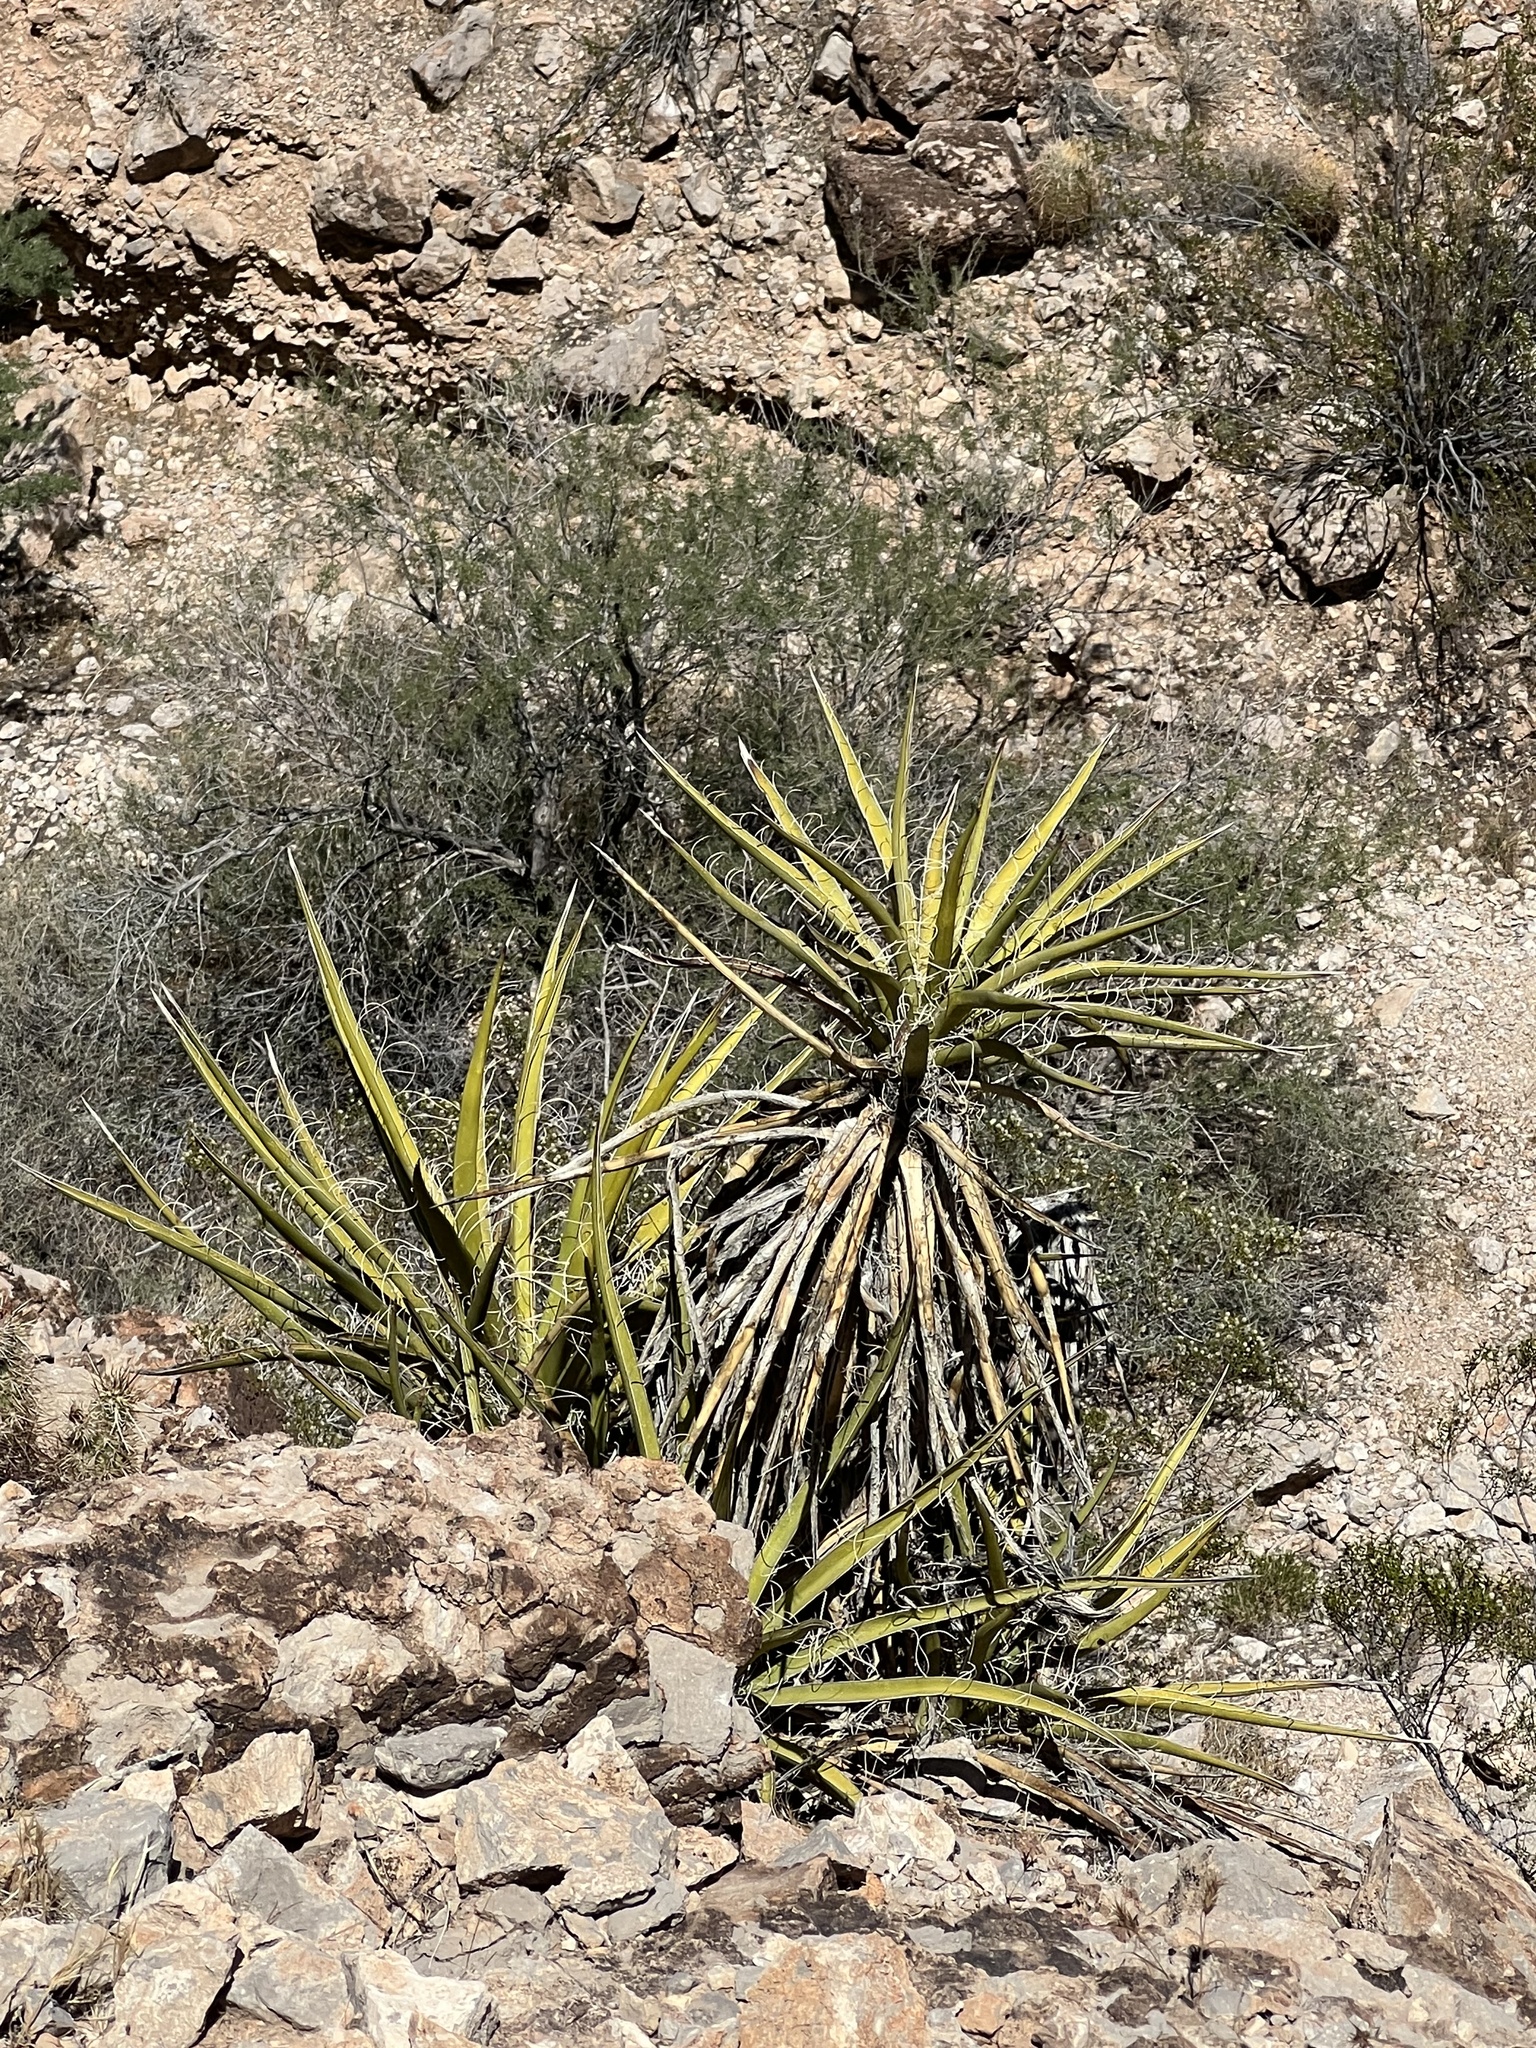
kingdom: Plantae
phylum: Tracheophyta
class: Liliopsida
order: Asparagales
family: Asparagaceae
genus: Yucca
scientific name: Yucca schidigera
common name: Mojave yucca
